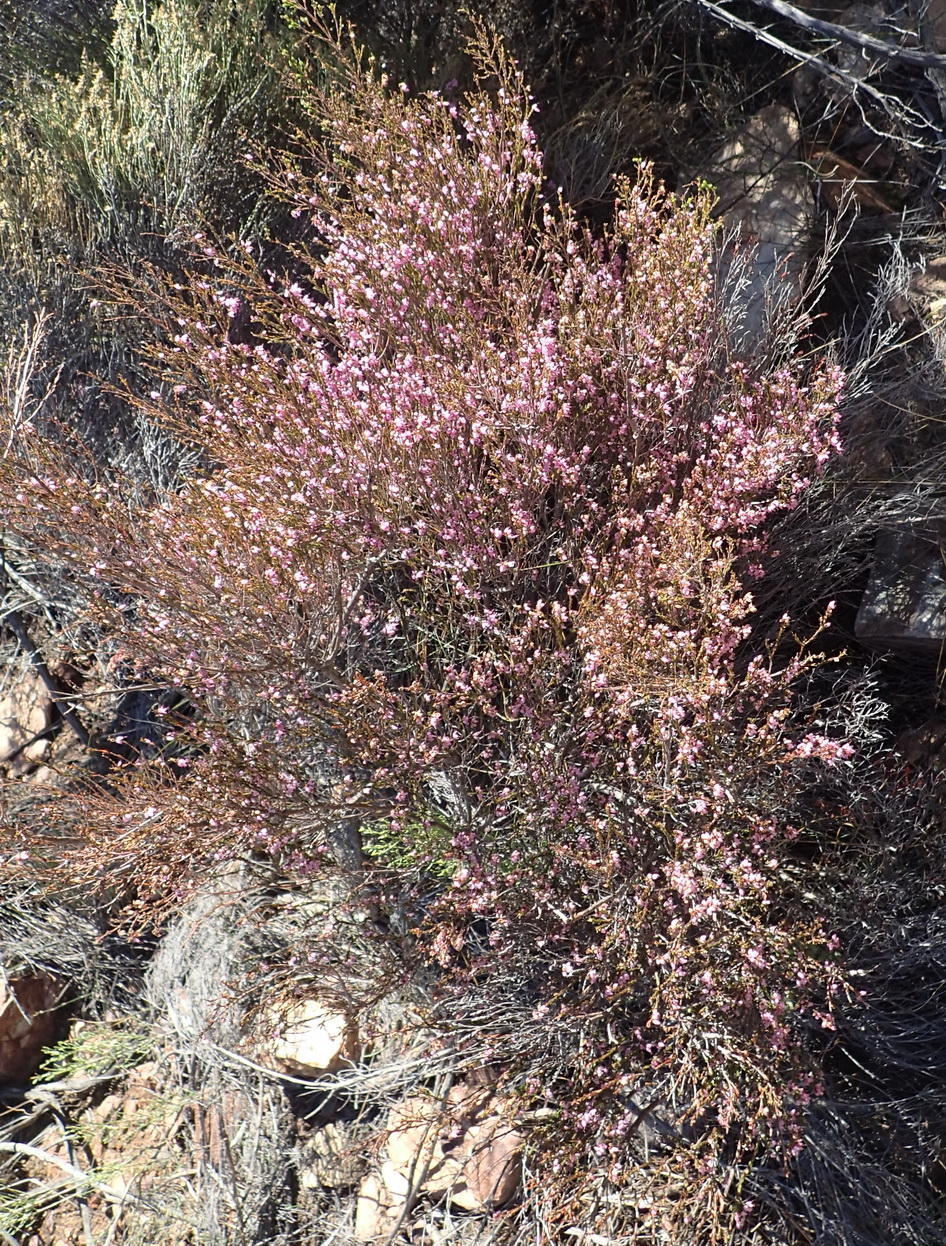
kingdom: Plantae
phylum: Tracheophyta
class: Magnoliopsida
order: Ericales
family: Ericaceae
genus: Erica
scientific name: Erica vlokii
